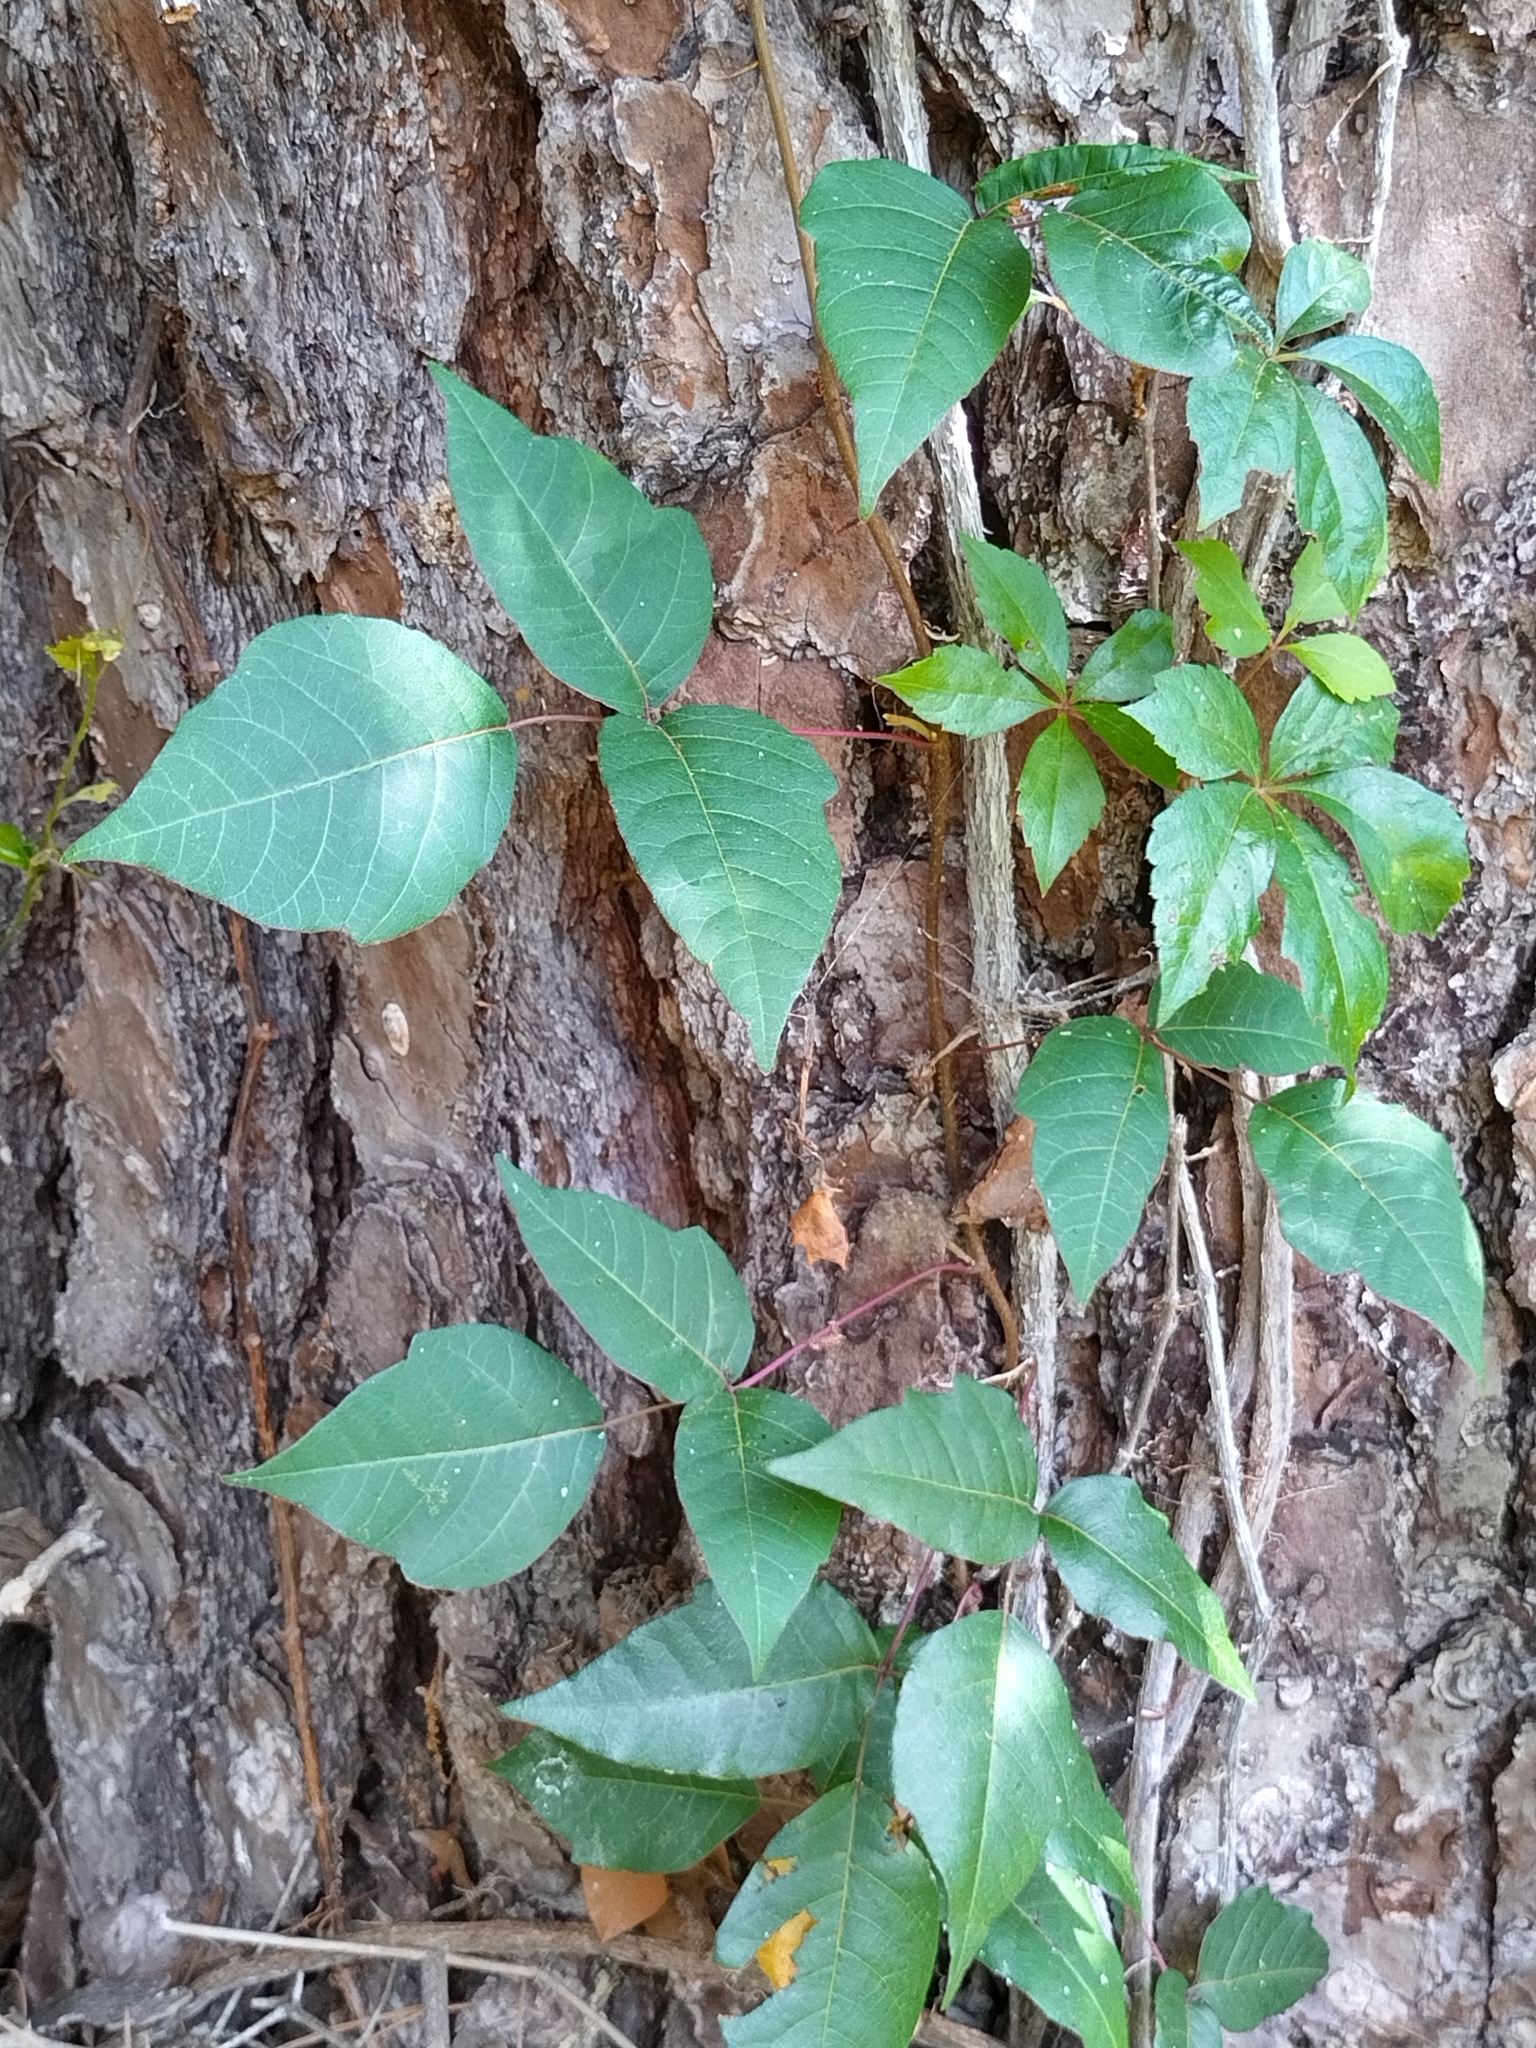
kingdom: Plantae
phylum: Tracheophyta
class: Magnoliopsida
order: Sapindales
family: Anacardiaceae
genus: Toxicodendron
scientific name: Toxicodendron radicans
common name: Poison ivy
